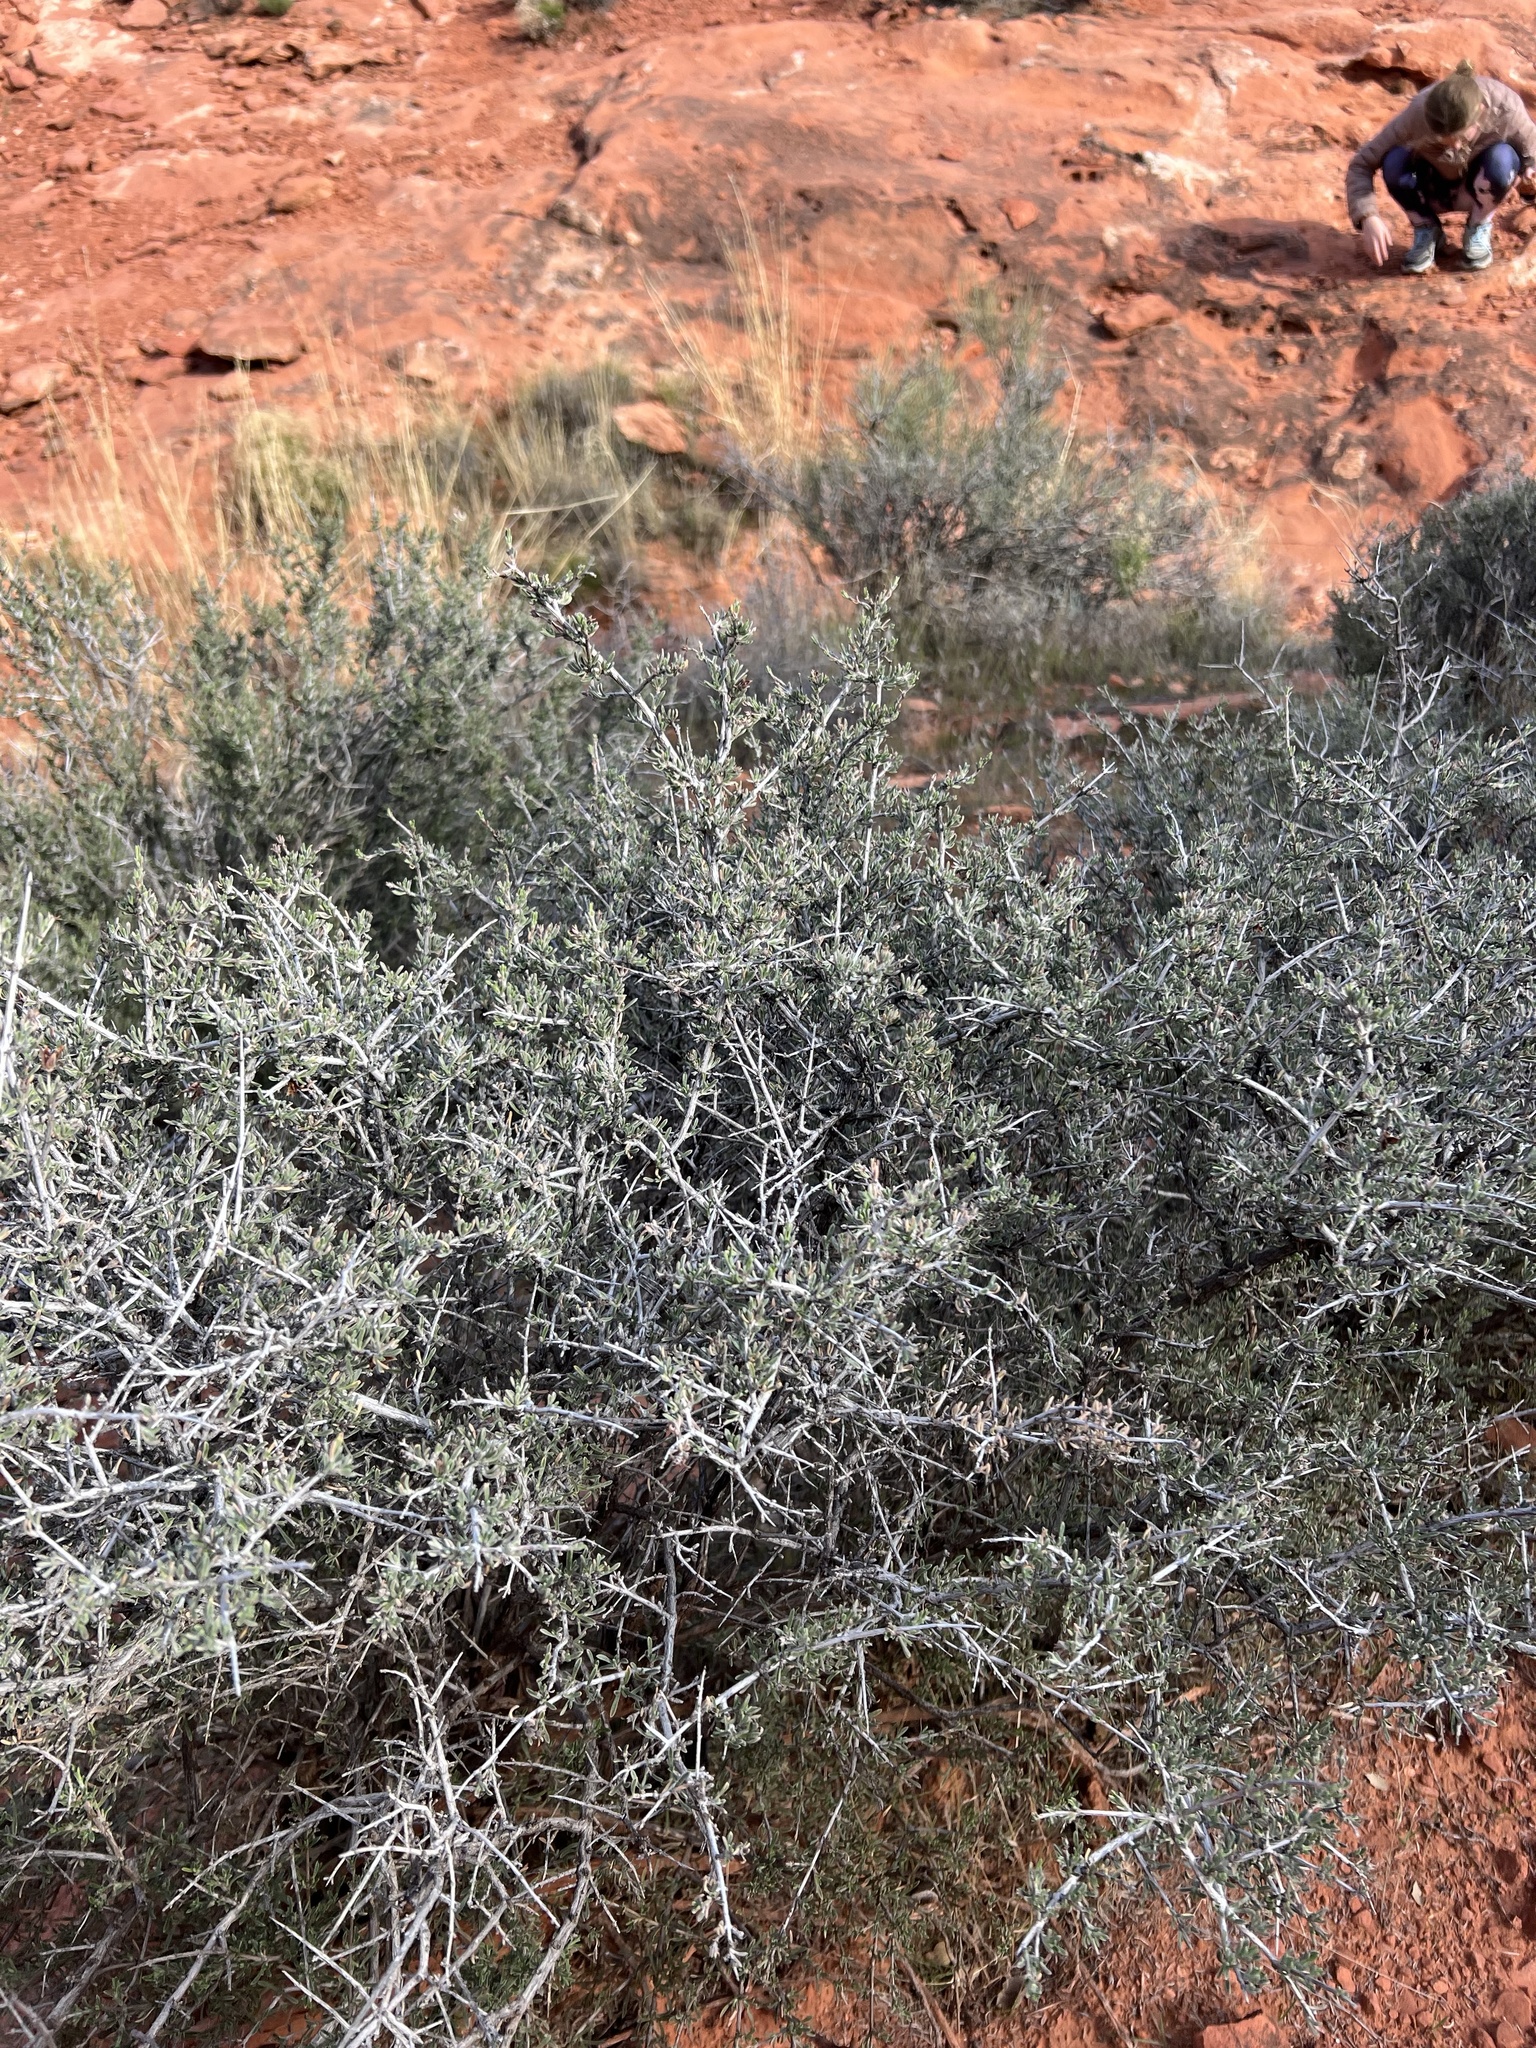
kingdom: Plantae
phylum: Tracheophyta
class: Magnoliopsida
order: Rosales
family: Rosaceae
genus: Coleogyne
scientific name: Coleogyne ramosissima
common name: Blackbrush
